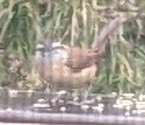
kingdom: Animalia
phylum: Chordata
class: Aves
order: Passeriformes
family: Troglodytidae
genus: Thryothorus
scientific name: Thryothorus ludovicianus
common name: Carolina wren
